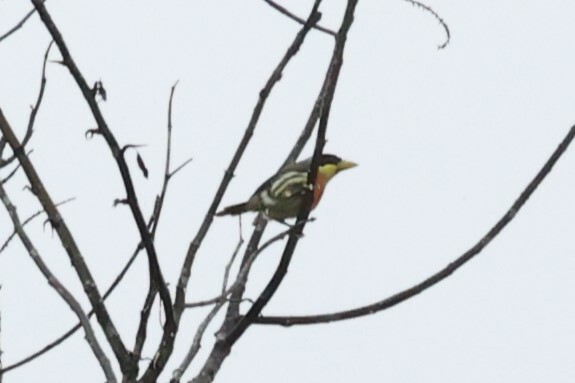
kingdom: Animalia
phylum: Chordata
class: Aves
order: Piciformes
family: Capitonidae
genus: Eubucco
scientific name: Eubucco richardsoni
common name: Lemon-throated barbet
